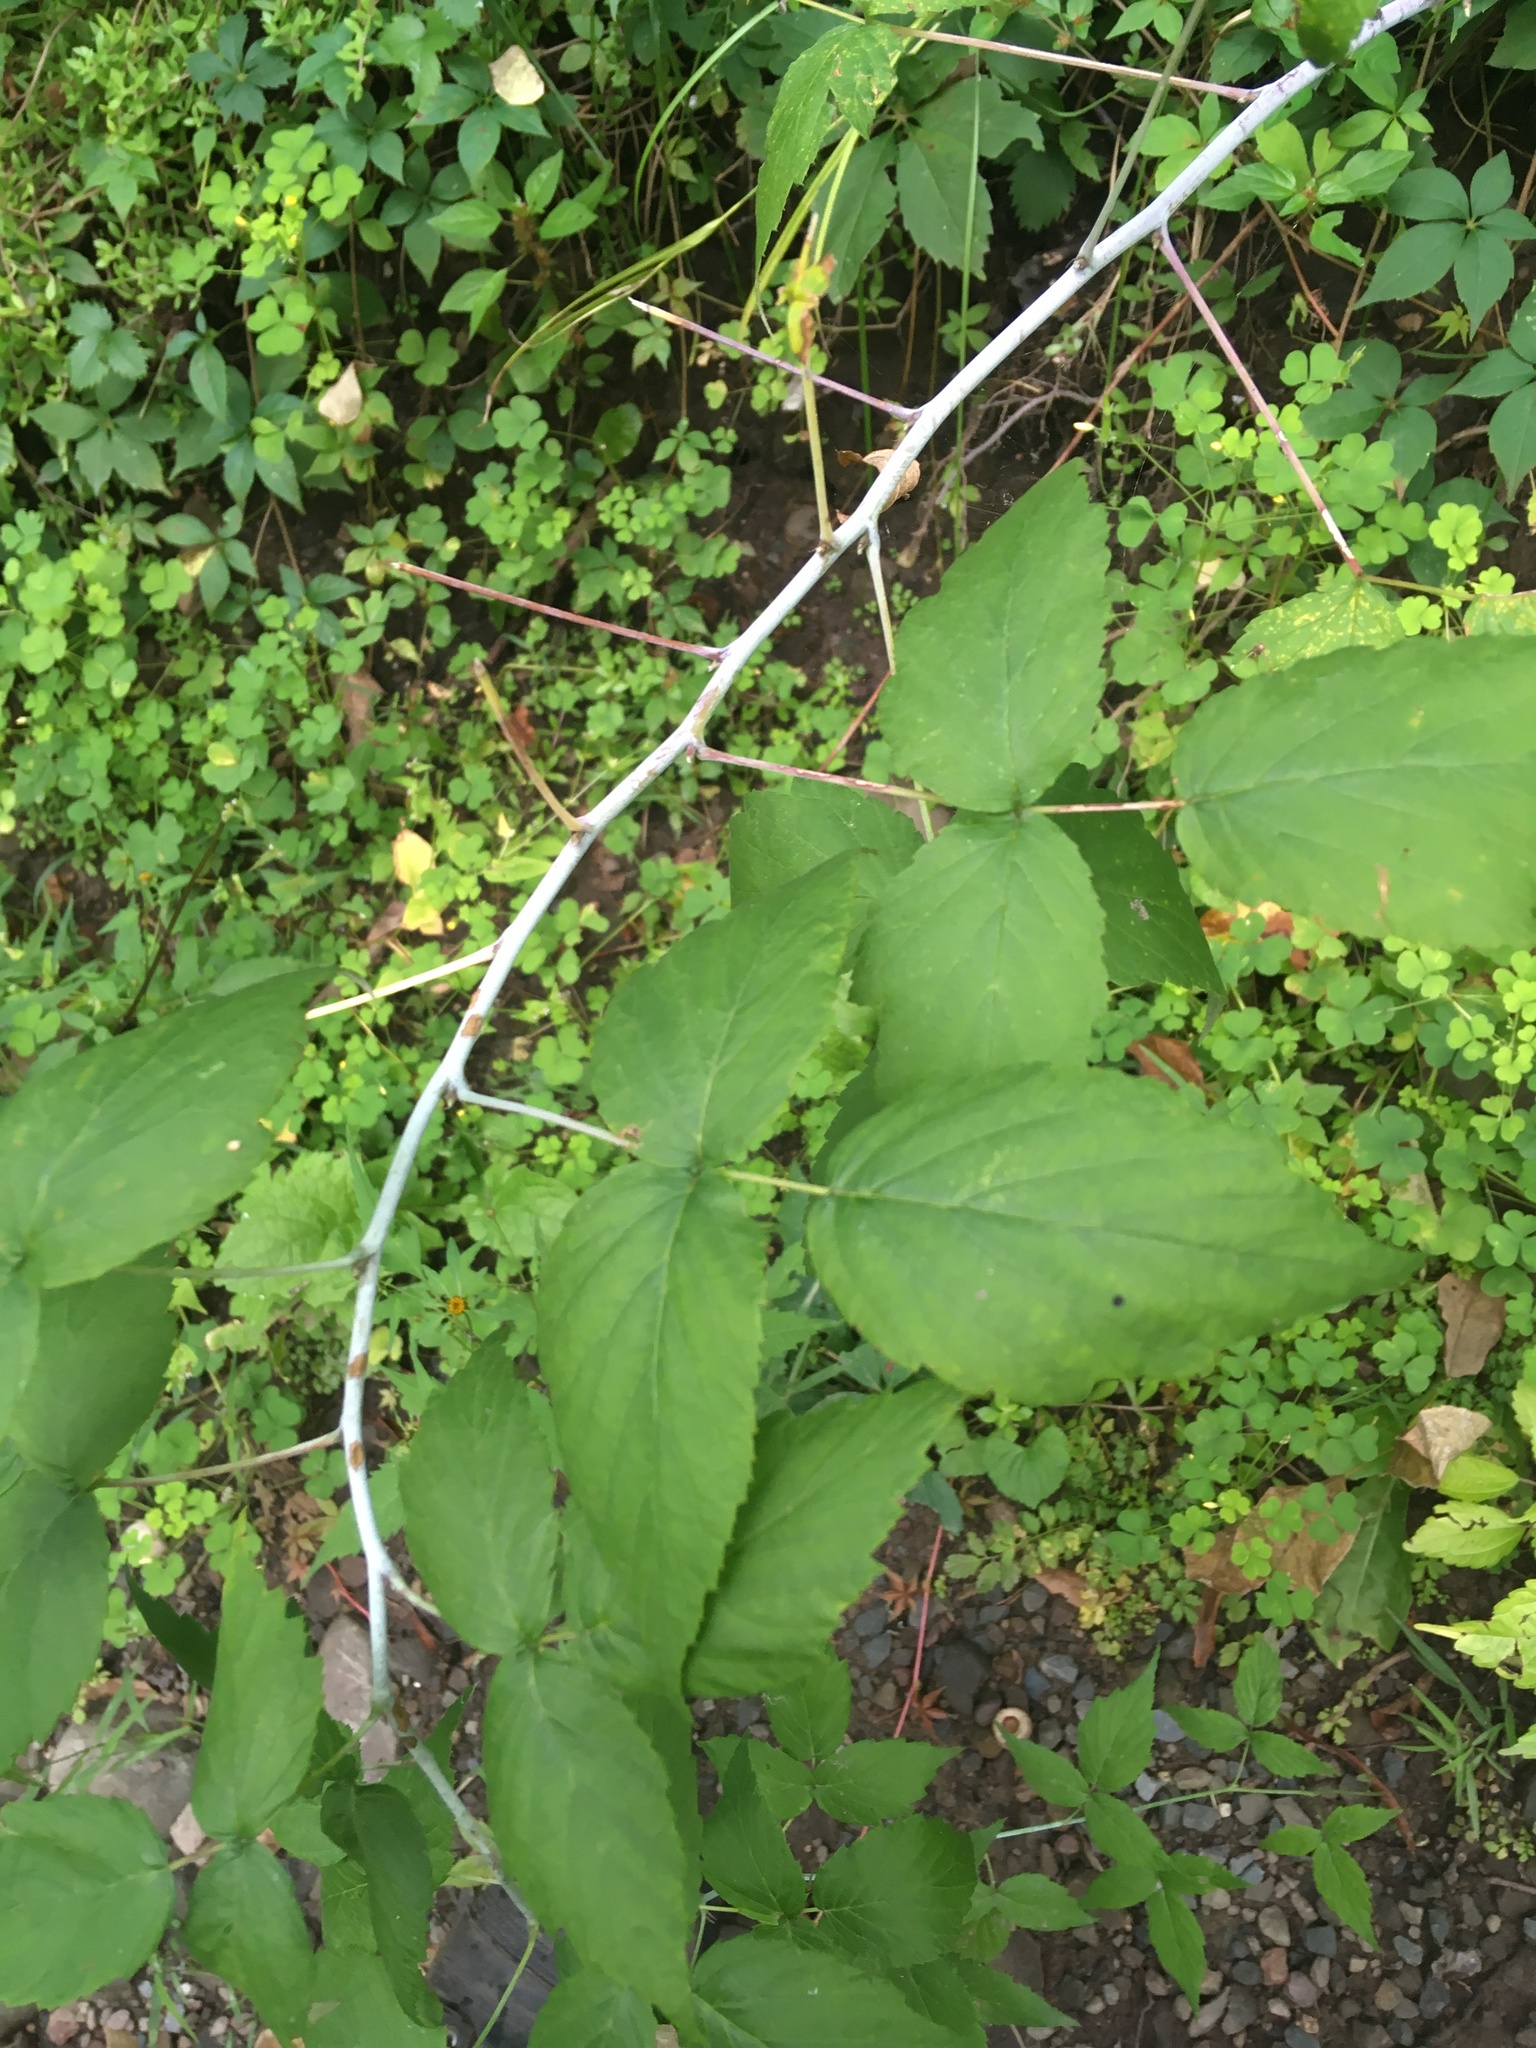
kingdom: Plantae
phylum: Tracheophyta
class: Magnoliopsida
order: Rosales
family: Rosaceae
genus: Rubus
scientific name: Rubus occidentalis
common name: Black raspberry
